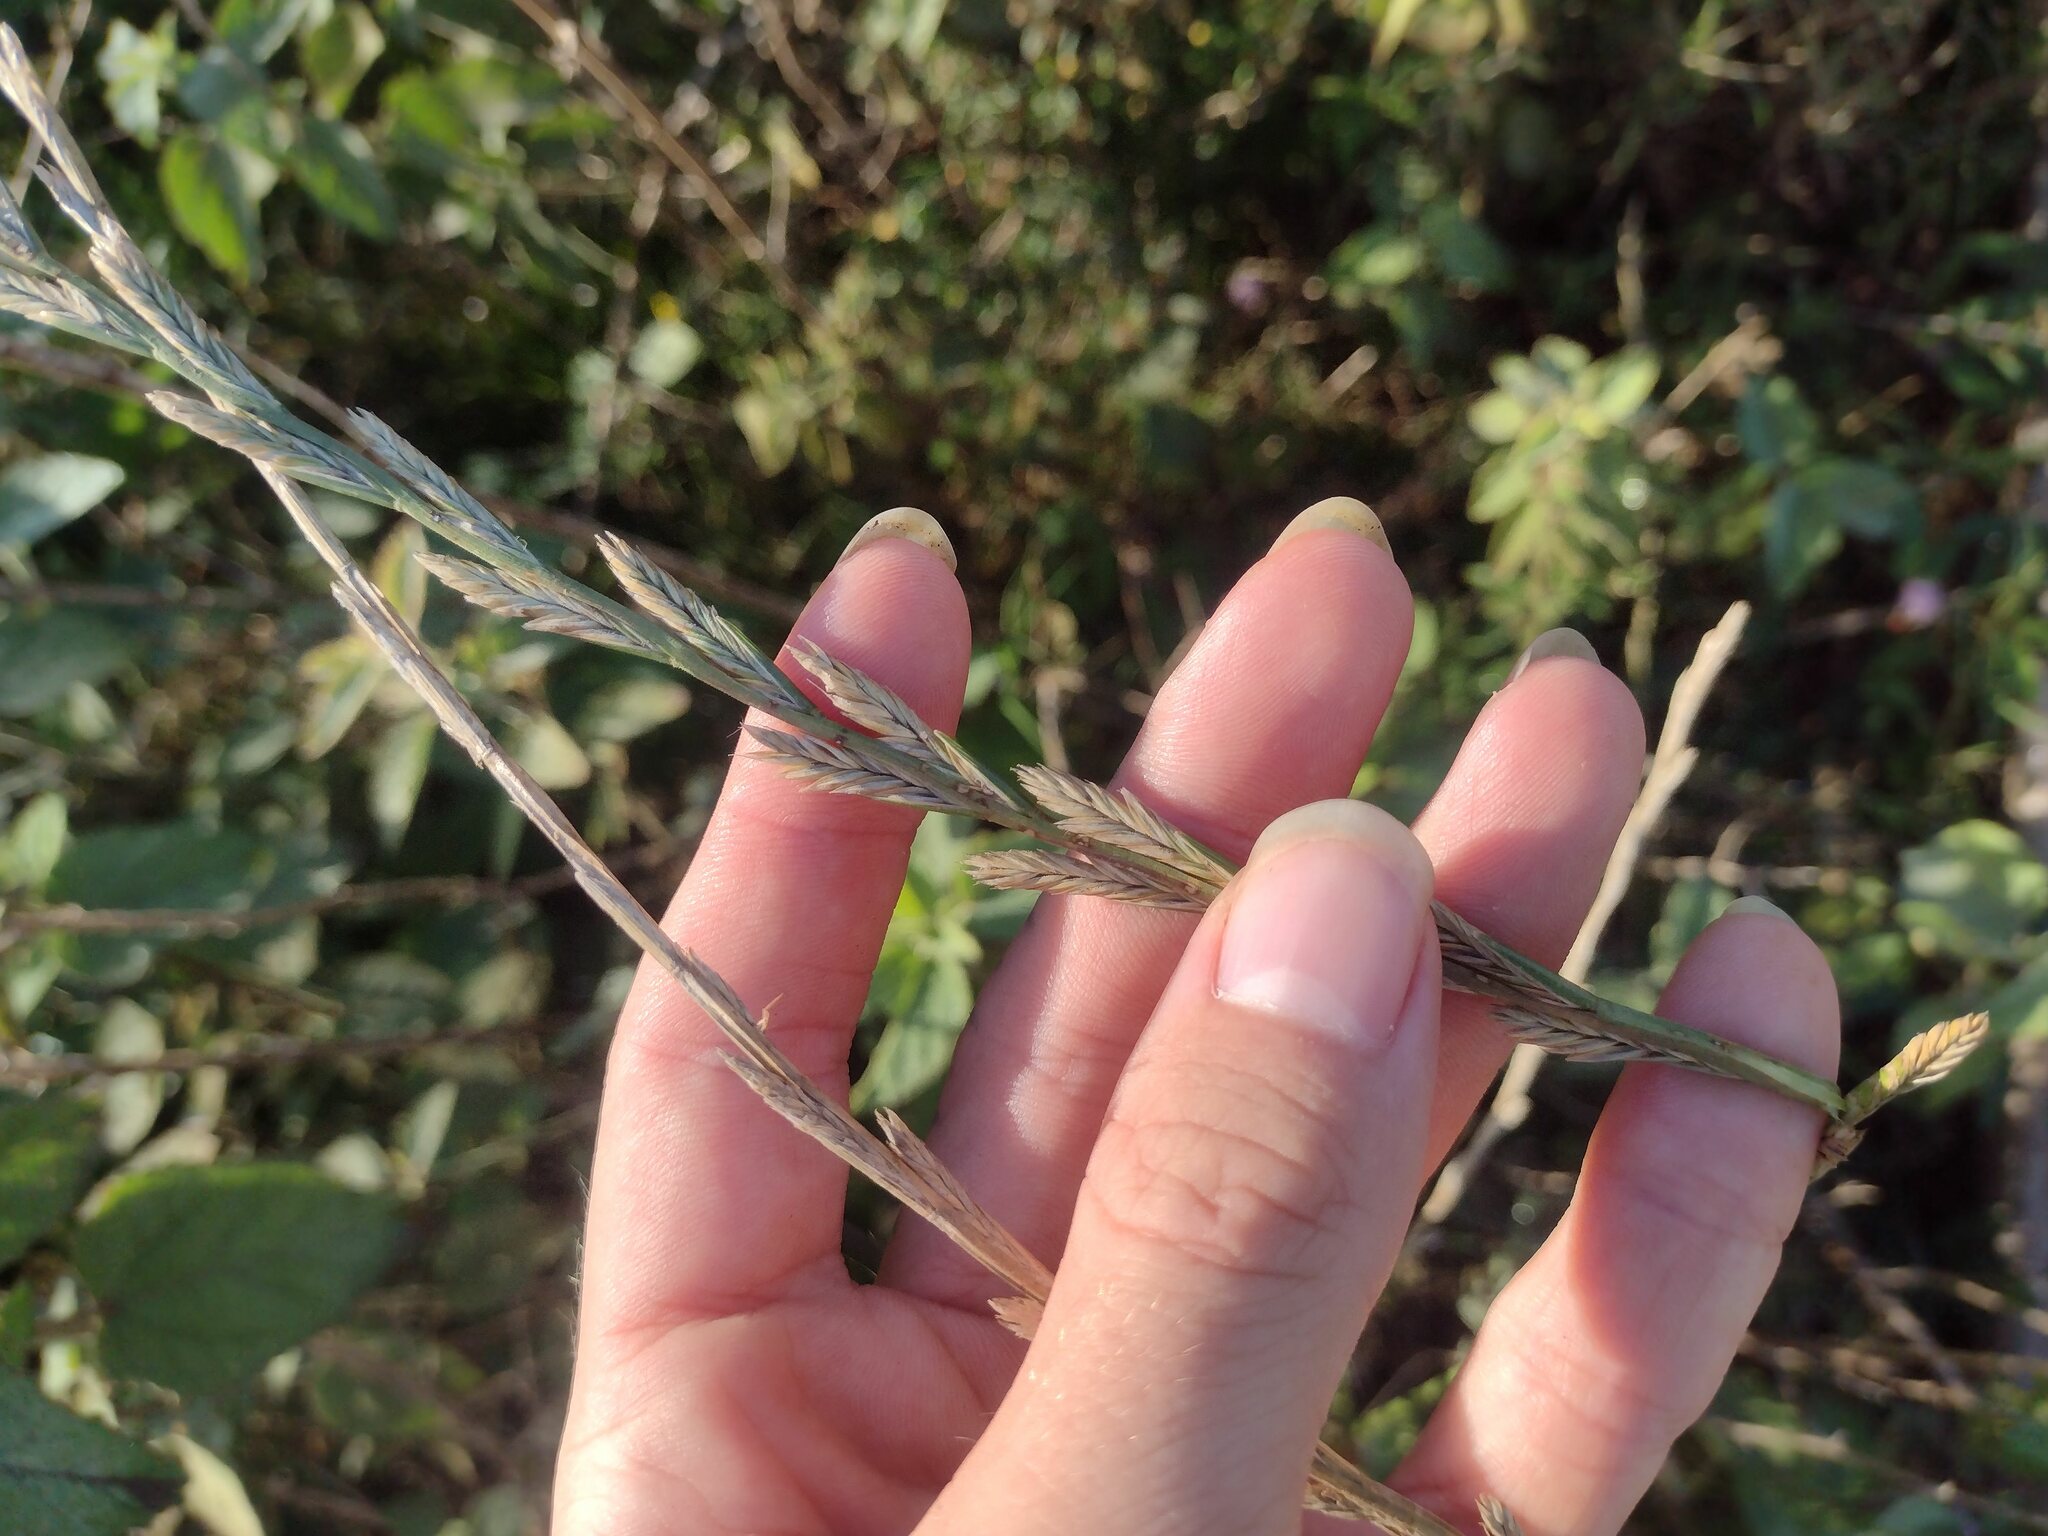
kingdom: Plantae
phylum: Tracheophyta
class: Liliopsida
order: Poales
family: Poaceae
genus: Lolium
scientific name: Lolium perenne
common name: Perennial ryegrass
